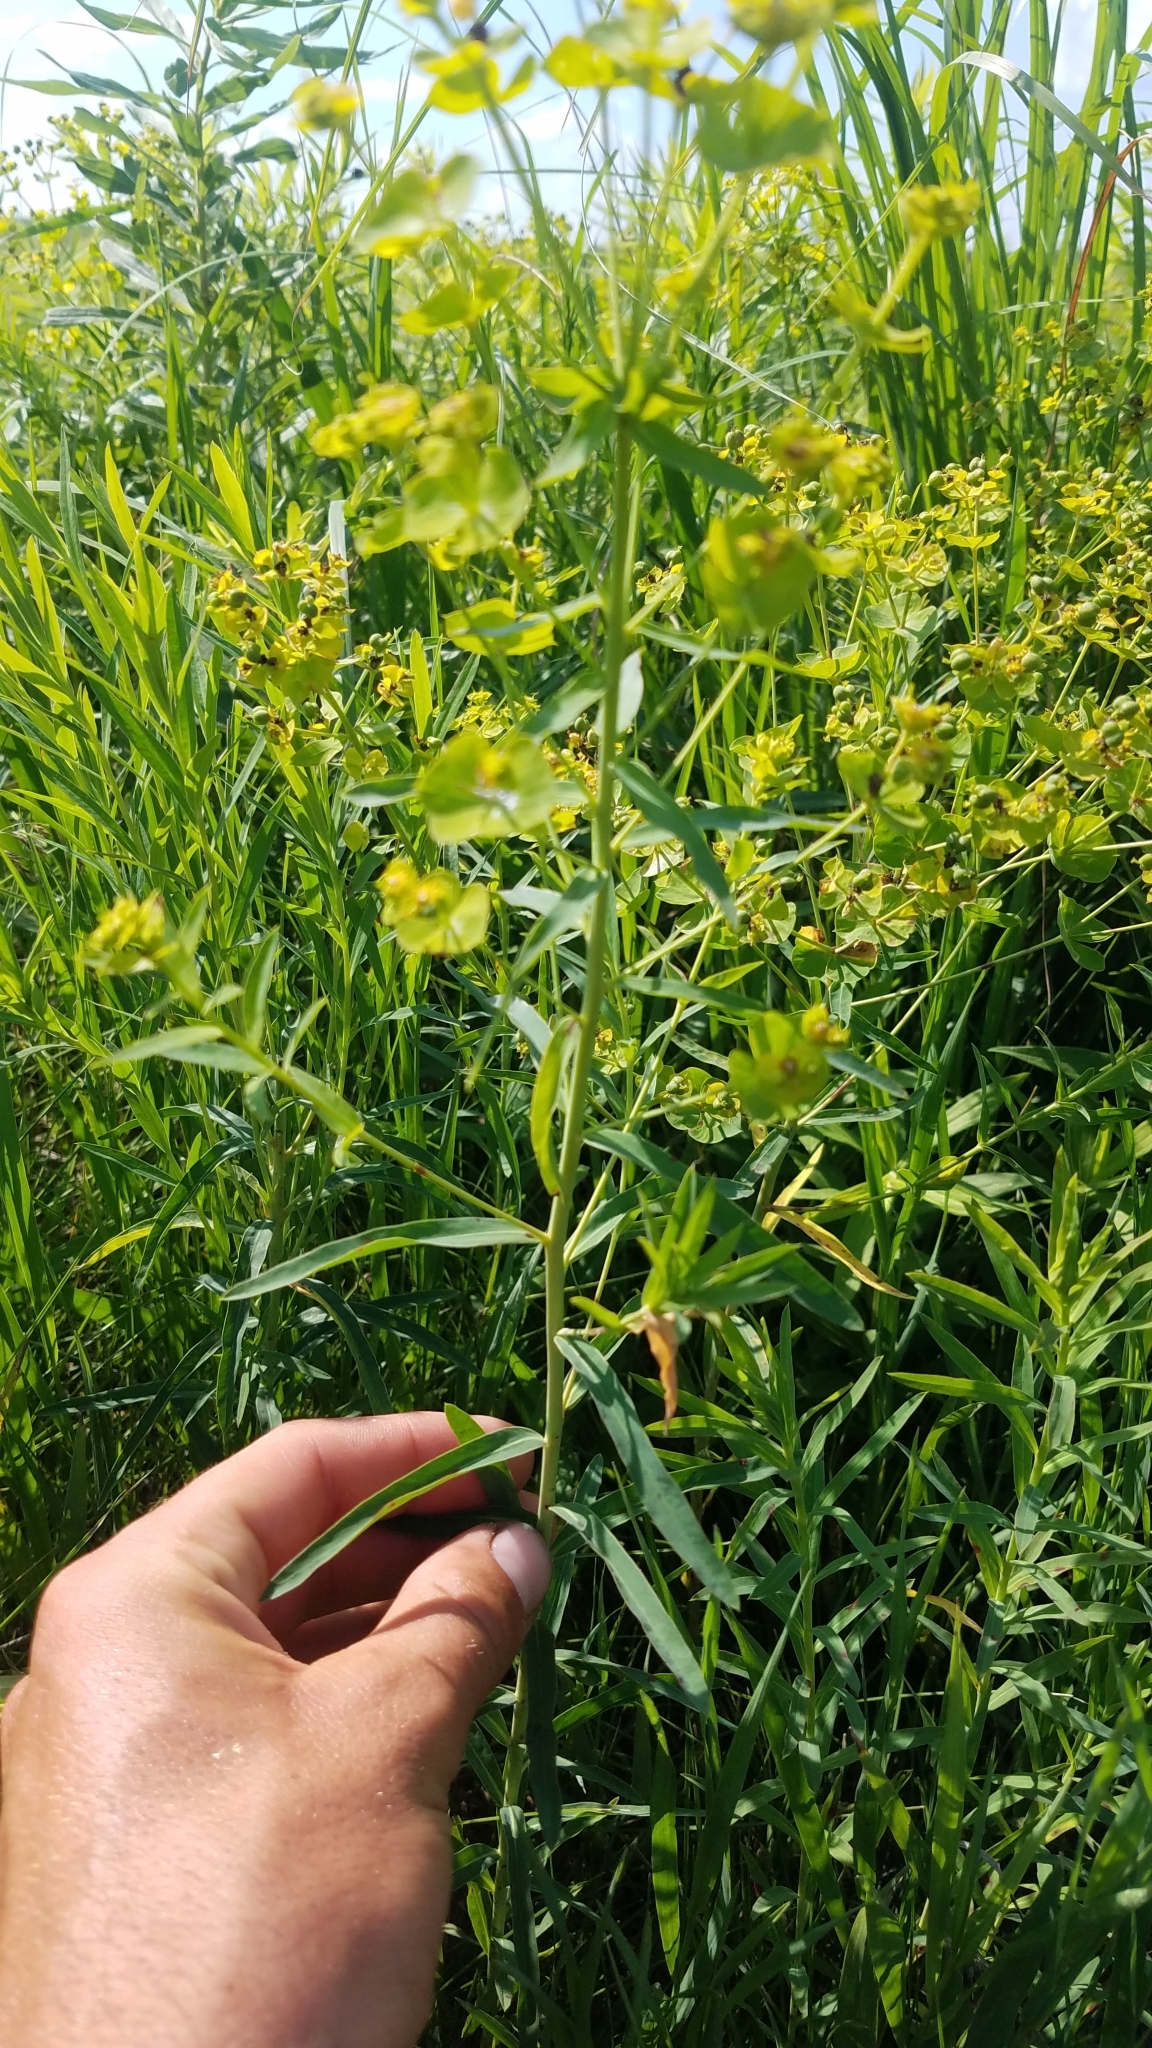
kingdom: Plantae
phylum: Tracheophyta
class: Magnoliopsida
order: Malpighiales
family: Euphorbiaceae
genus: Euphorbia
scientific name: Euphorbia virgata
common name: Leafy spurge
